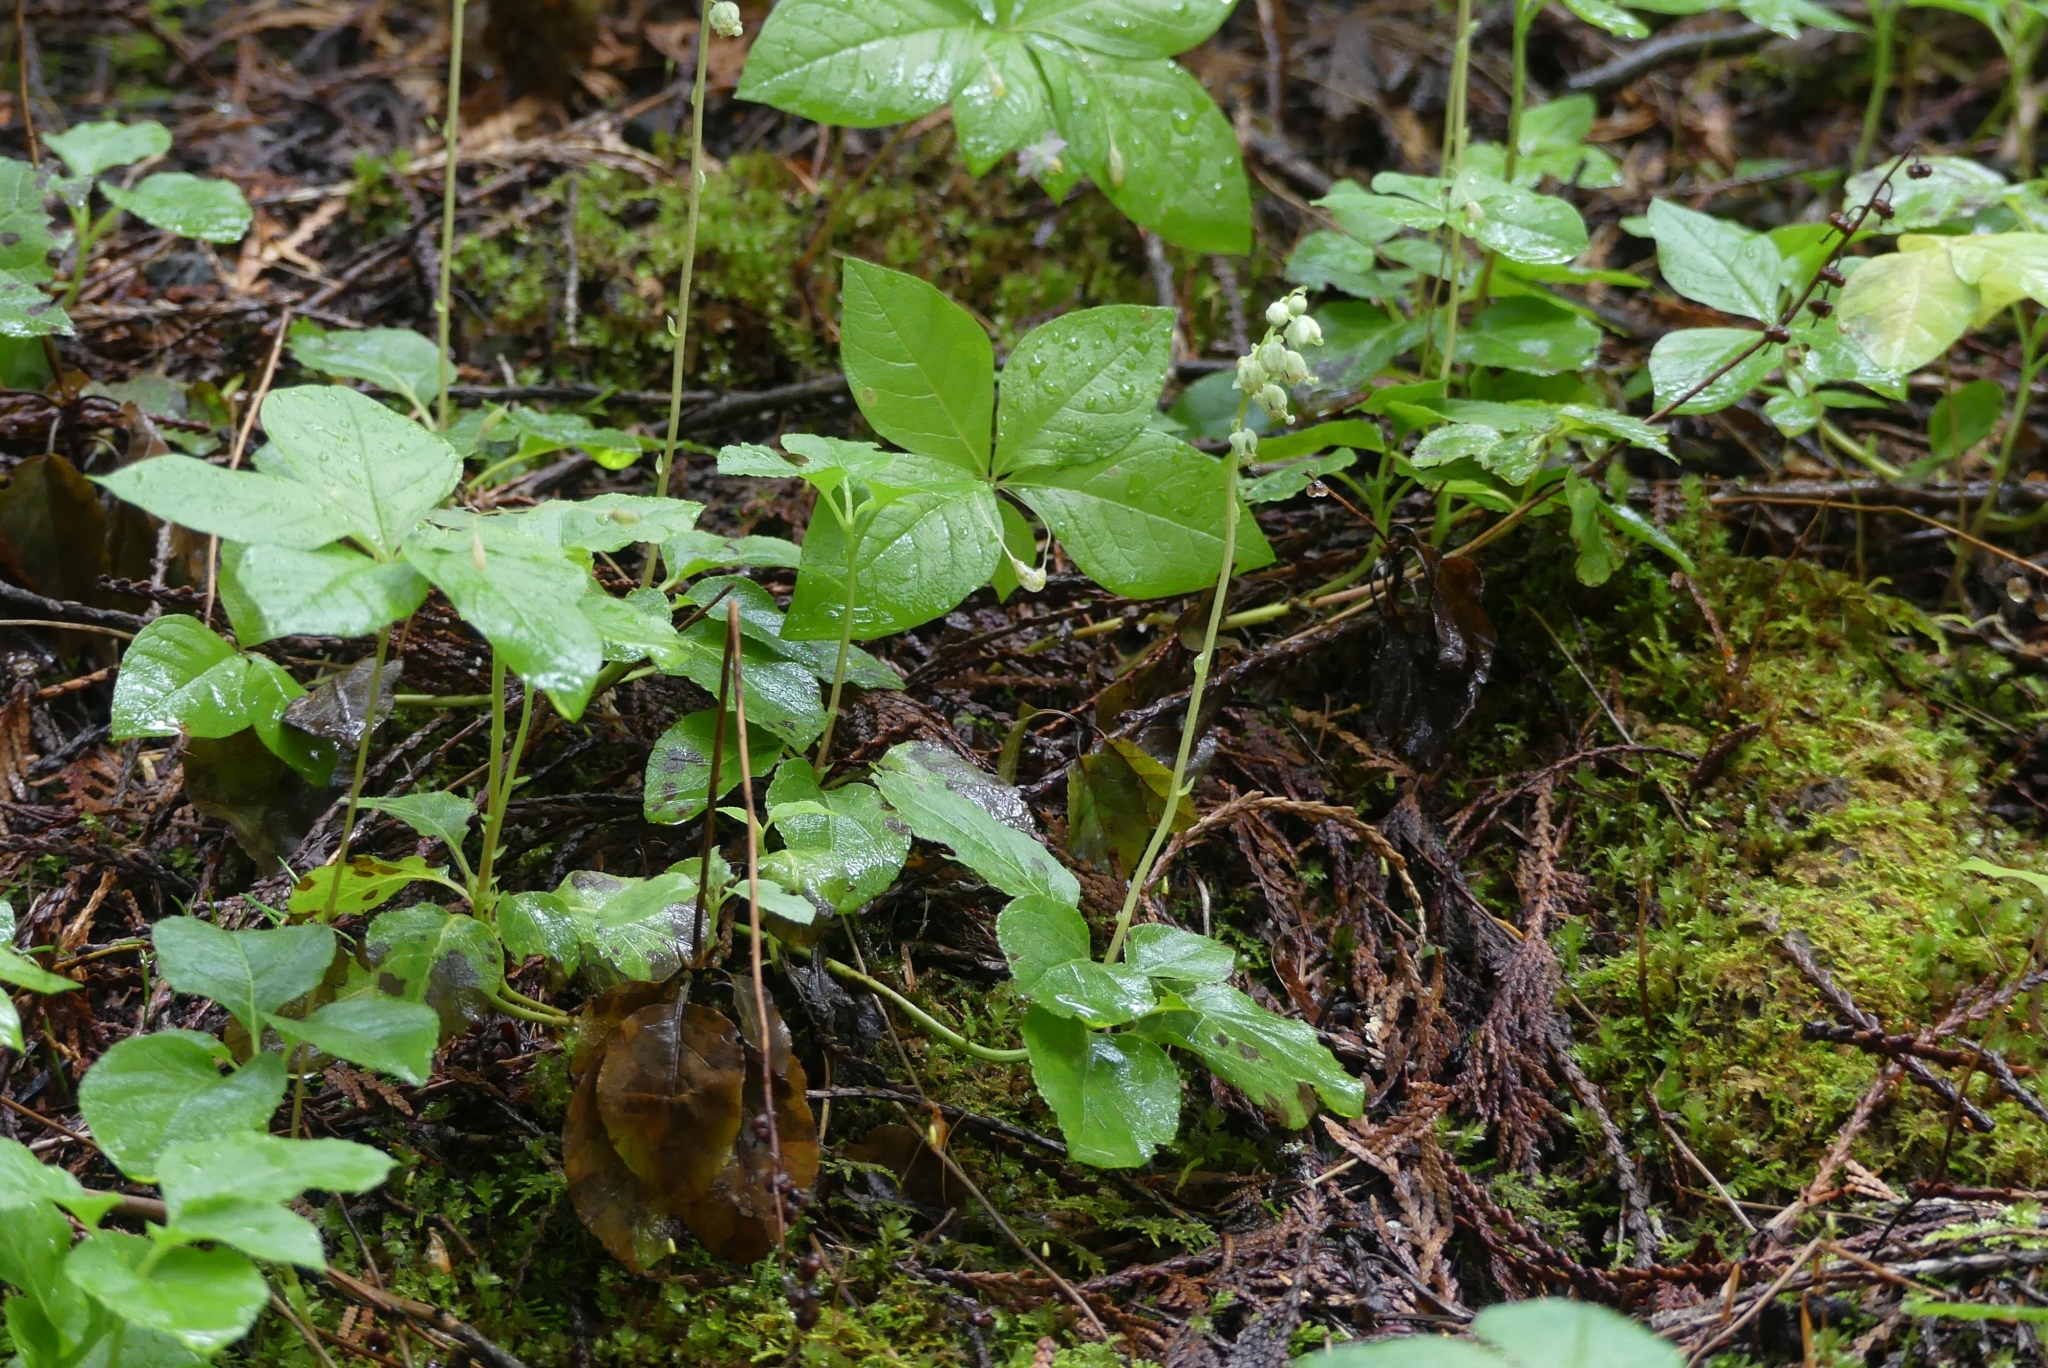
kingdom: Plantae
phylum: Tracheophyta
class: Magnoliopsida
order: Ericales
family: Ericaceae
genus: Orthilia
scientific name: Orthilia secunda
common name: One-sided orthilia
